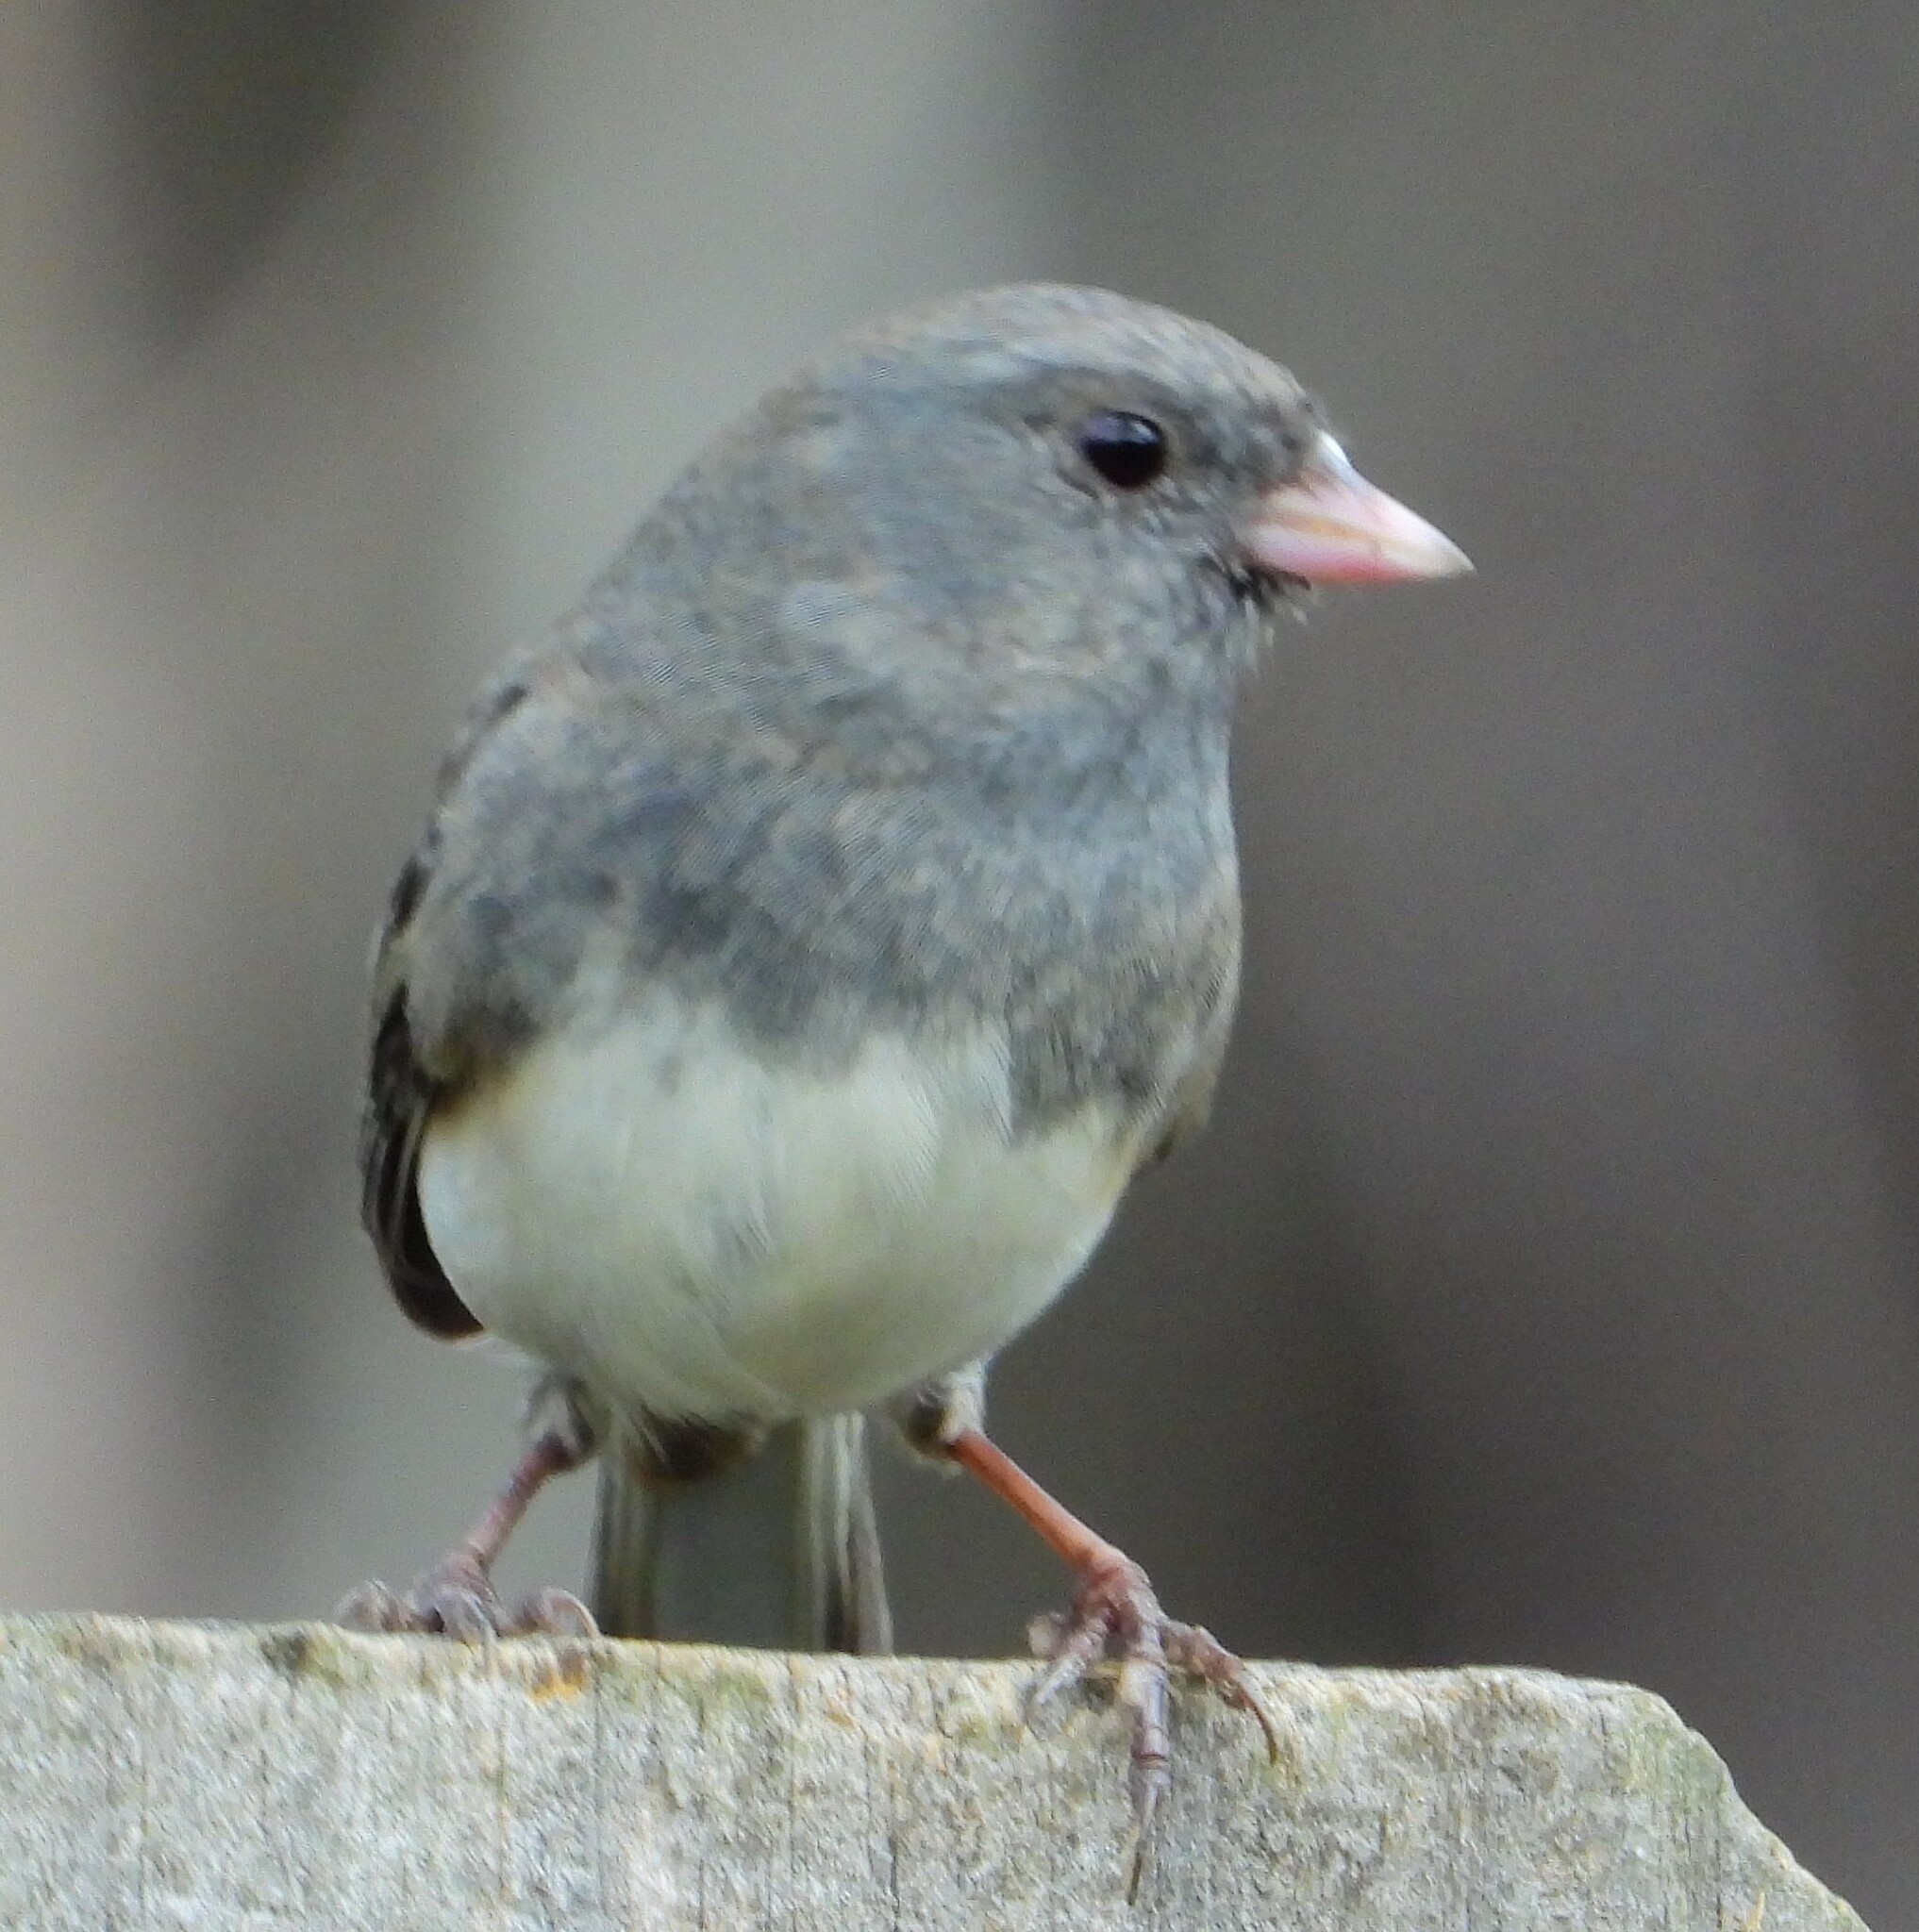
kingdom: Animalia
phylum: Chordata
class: Aves
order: Passeriformes
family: Passerellidae
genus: Junco
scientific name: Junco hyemalis
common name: Dark-eyed junco
